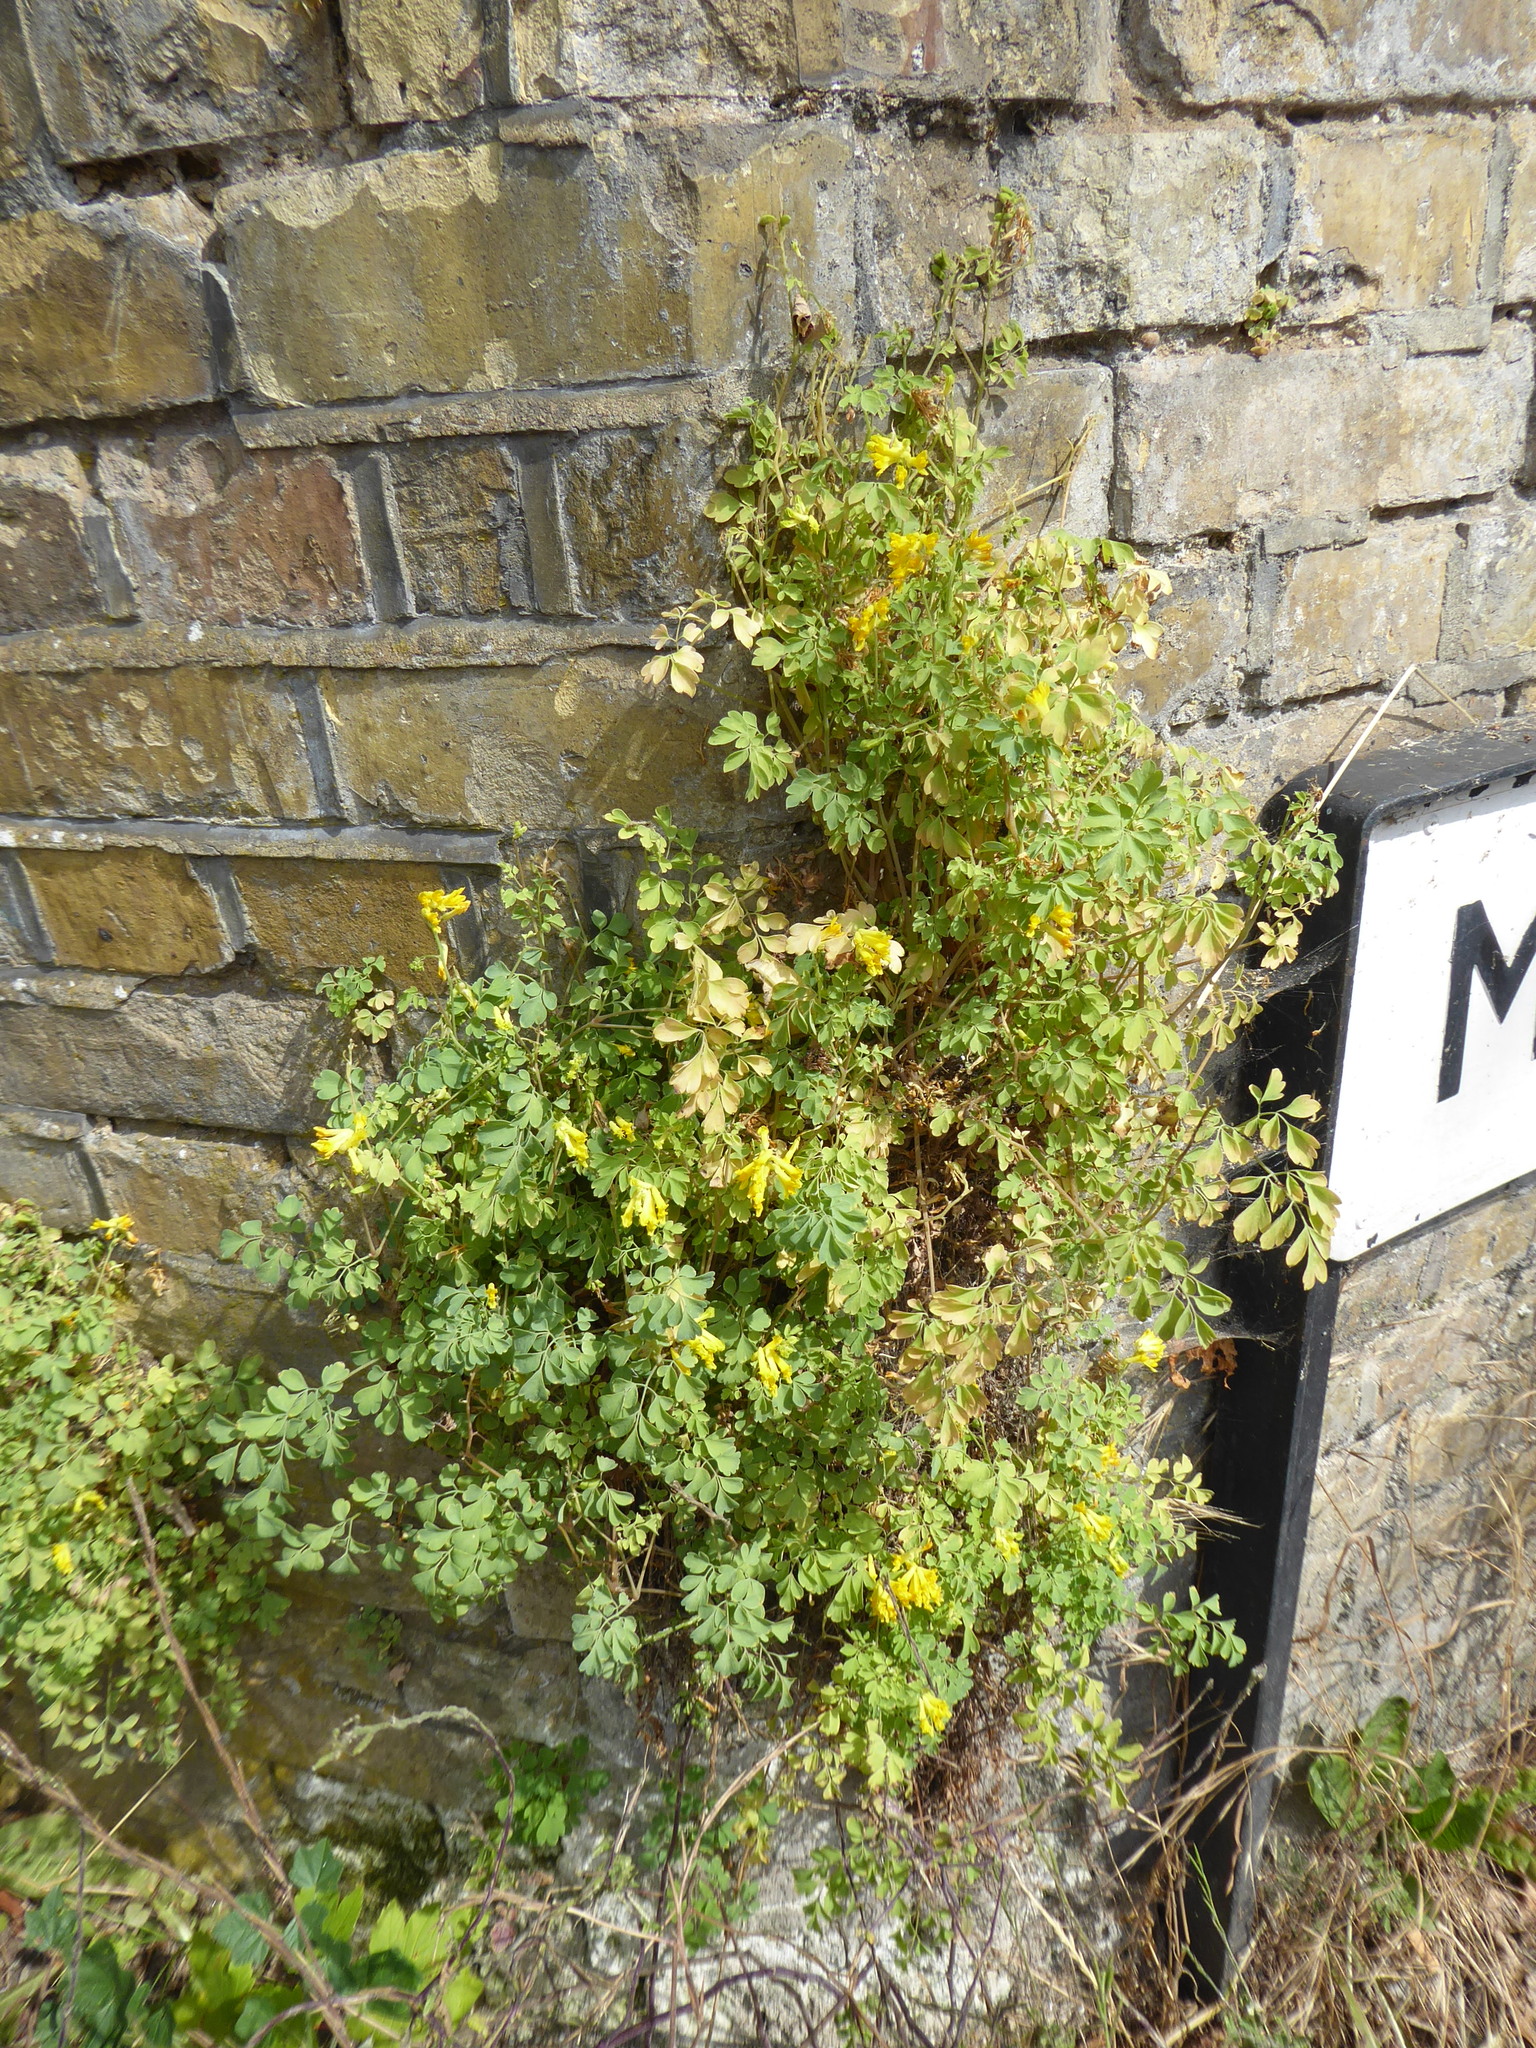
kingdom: Plantae
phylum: Tracheophyta
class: Magnoliopsida
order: Ranunculales
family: Papaveraceae
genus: Pseudofumaria
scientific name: Pseudofumaria lutea
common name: Yellow corydalis
